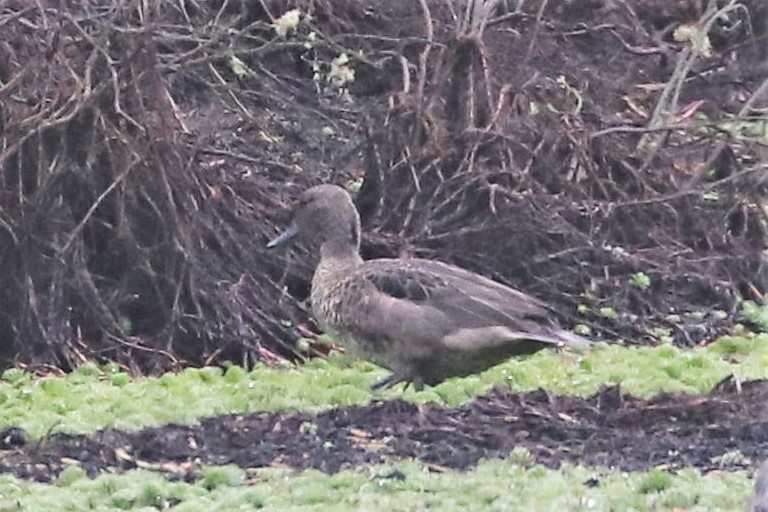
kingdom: Animalia
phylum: Chordata
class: Aves
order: Anseriformes
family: Anatidae
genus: Anas
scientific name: Anas andium
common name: Andean teal
